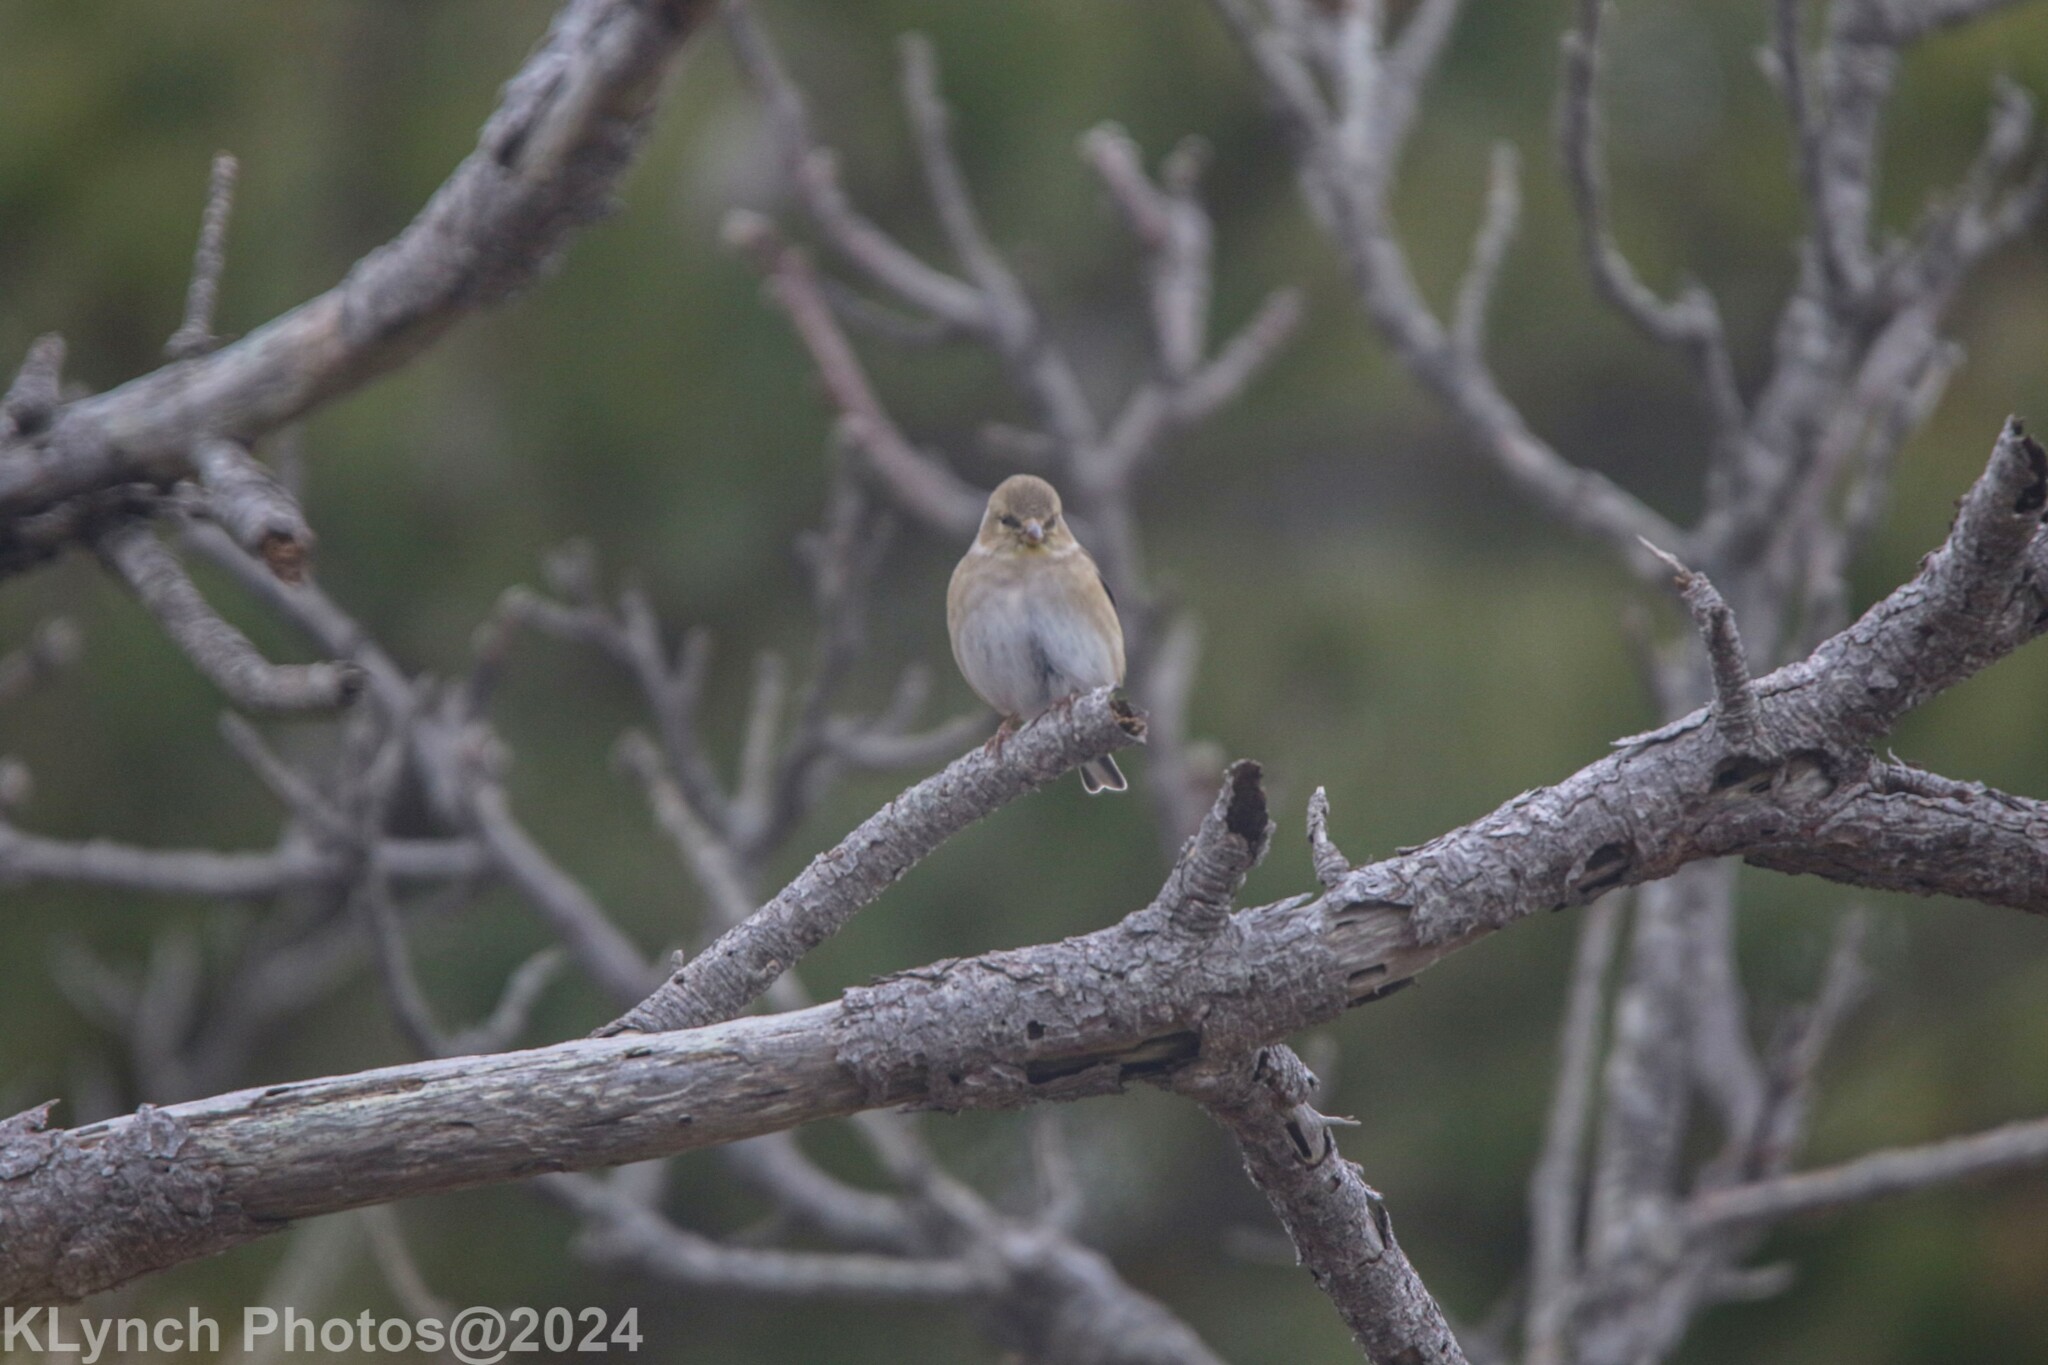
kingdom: Animalia
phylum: Chordata
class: Aves
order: Passeriformes
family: Fringillidae
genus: Spinus
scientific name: Spinus tristis
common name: American goldfinch
